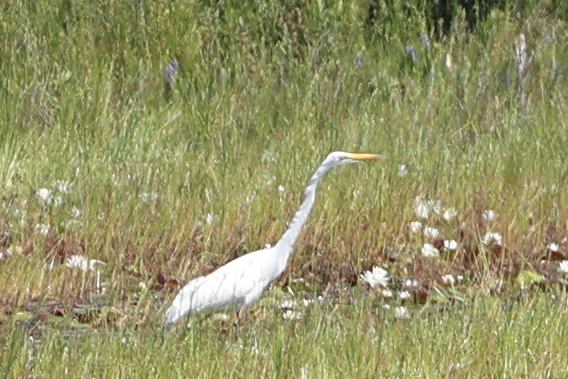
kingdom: Animalia
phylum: Chordata
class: Aves
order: Pelecaniformes
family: Ardeidae
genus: Ardea
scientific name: Ardea alba
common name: Great egret
